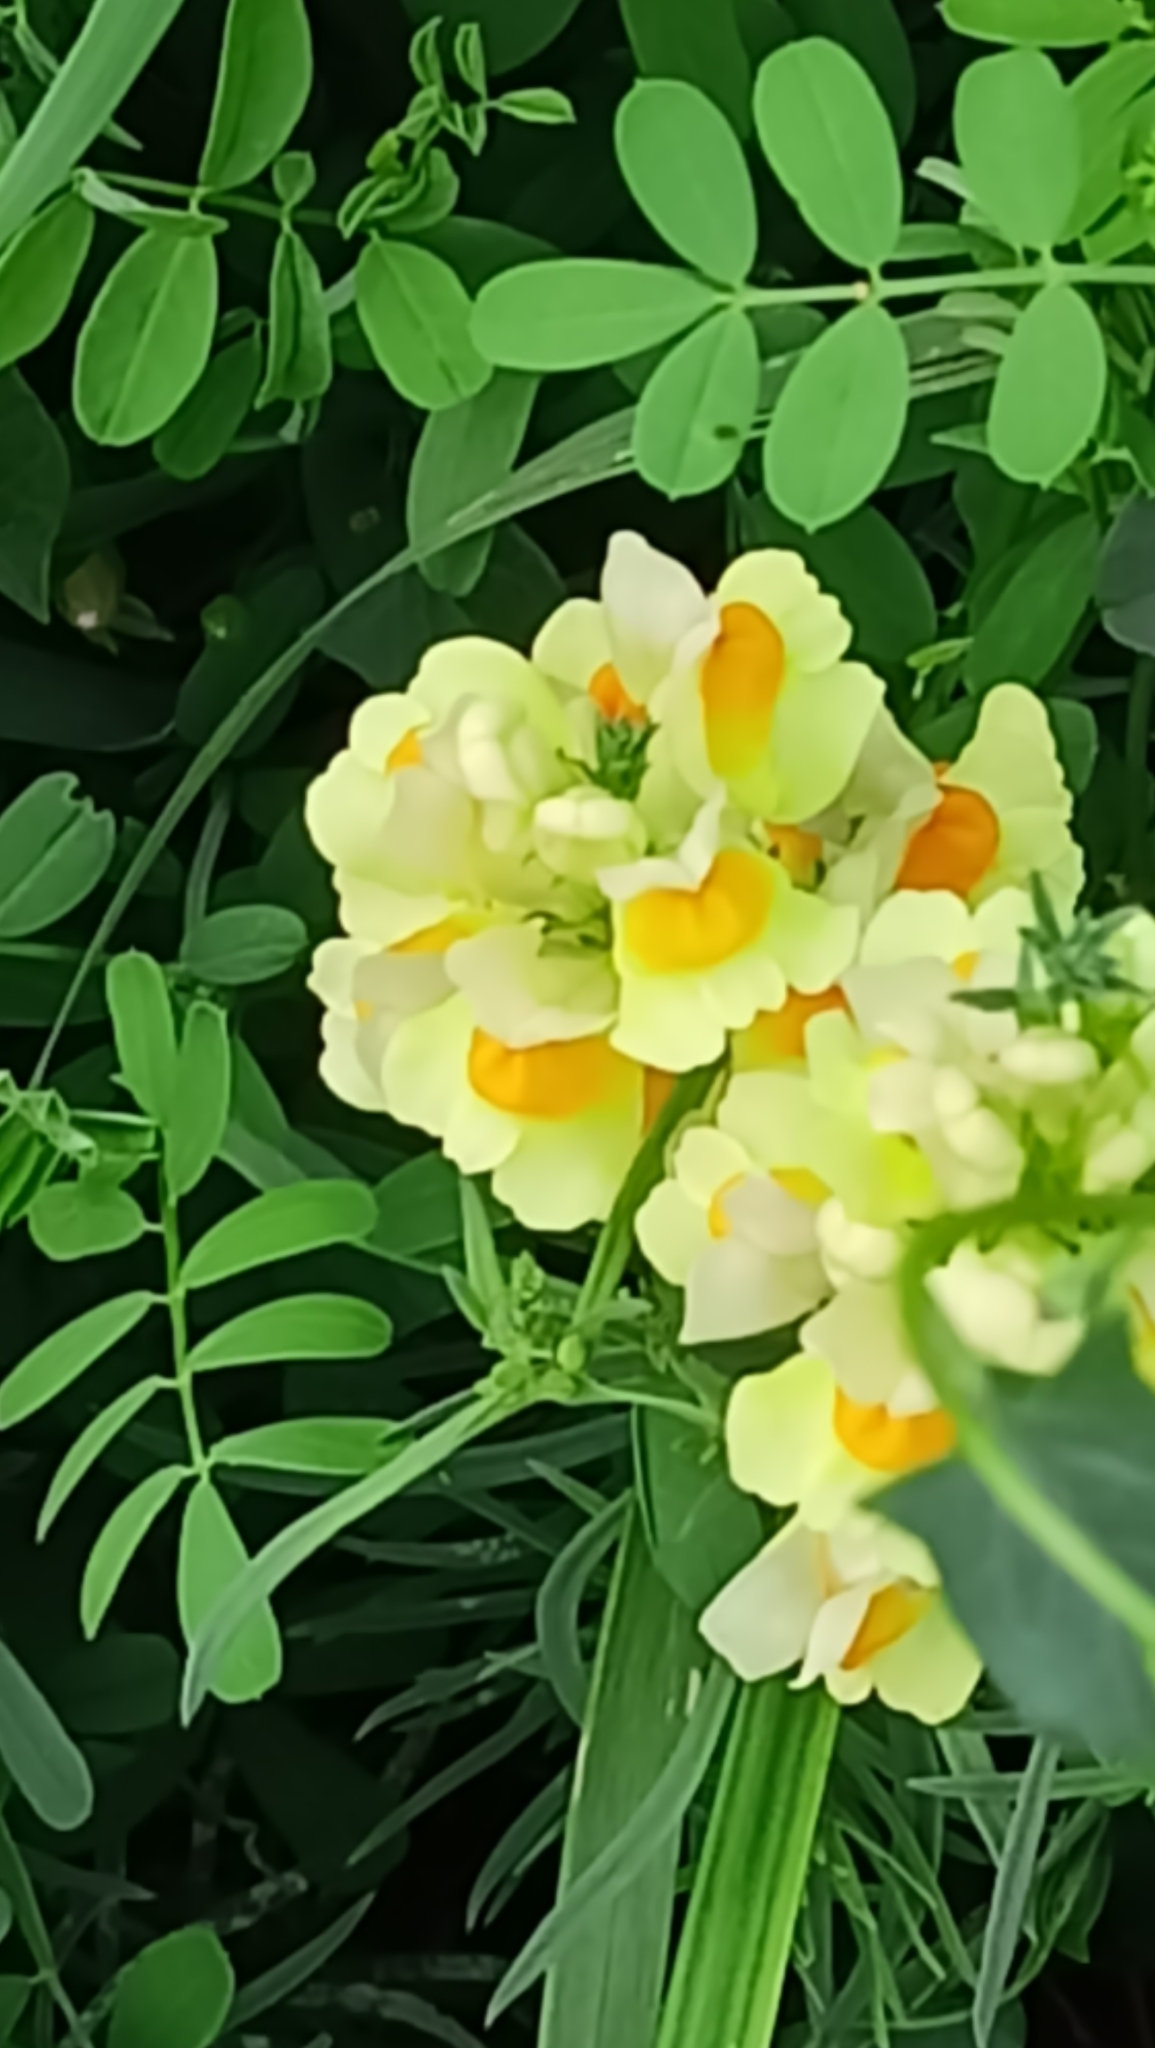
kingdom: Plantae
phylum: Tracheophyta
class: Magnoliopsida
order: Lamiales
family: Plantaginaceae
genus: Linaria
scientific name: Linaria vulgaris
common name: Butter and eggs
